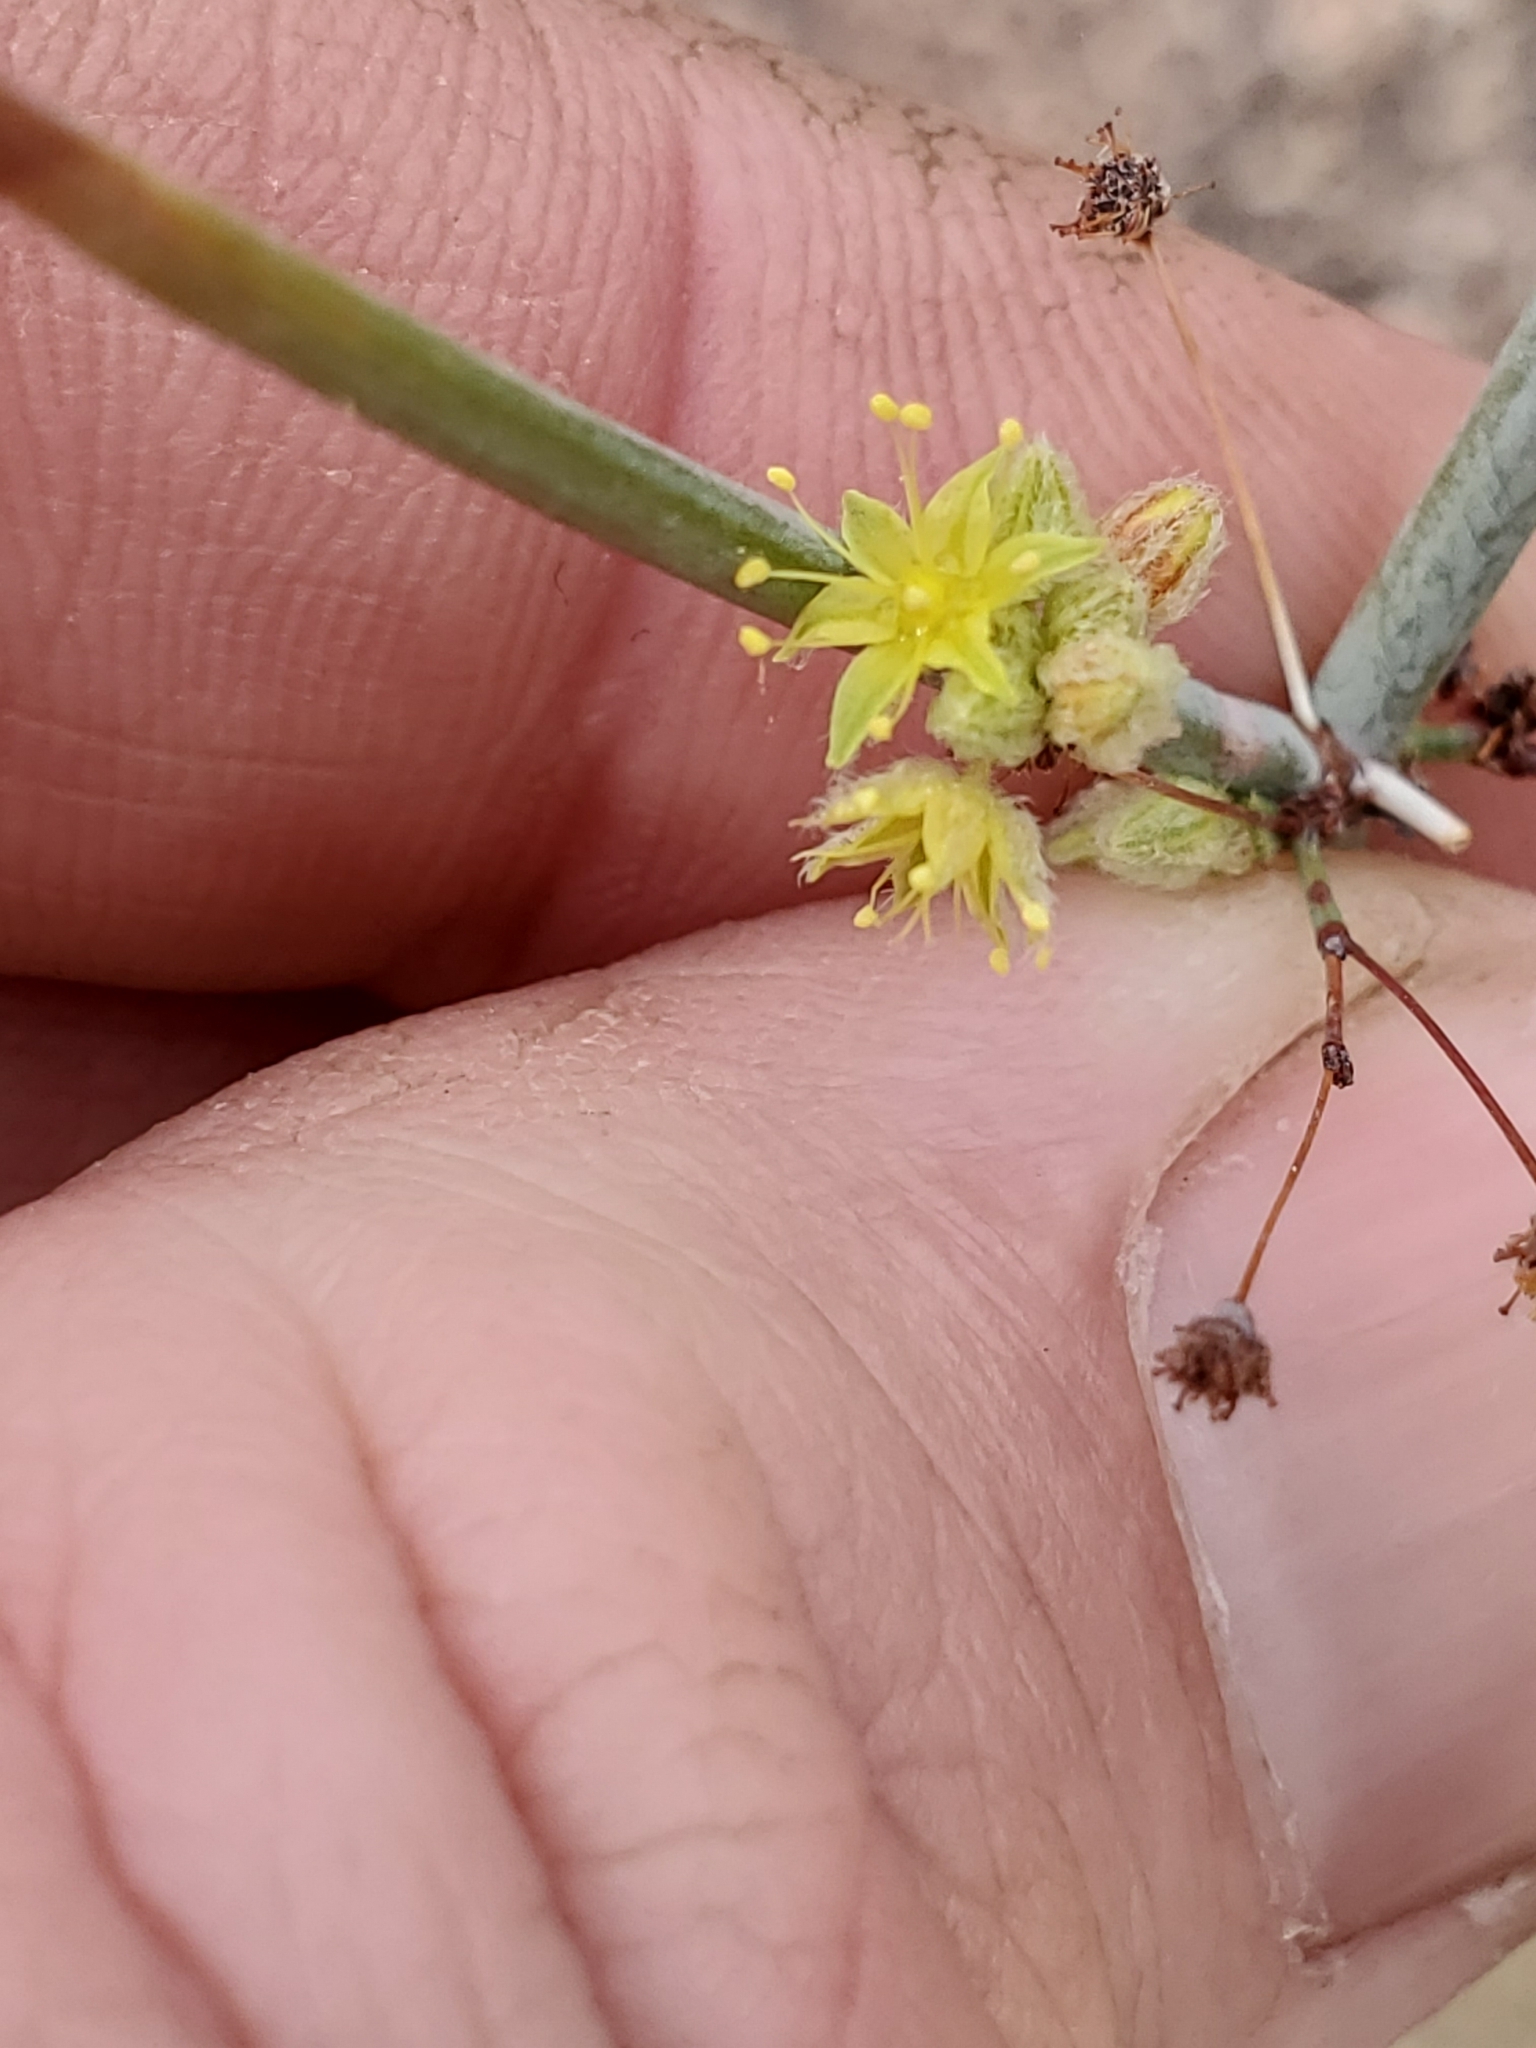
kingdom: Plantae
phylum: Tracheophyta
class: Magnoliopsida
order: Caryophyllales
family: Polygonaceae
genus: Eriogonum
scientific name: Eriogonum inflatum
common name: Desert trumpet
